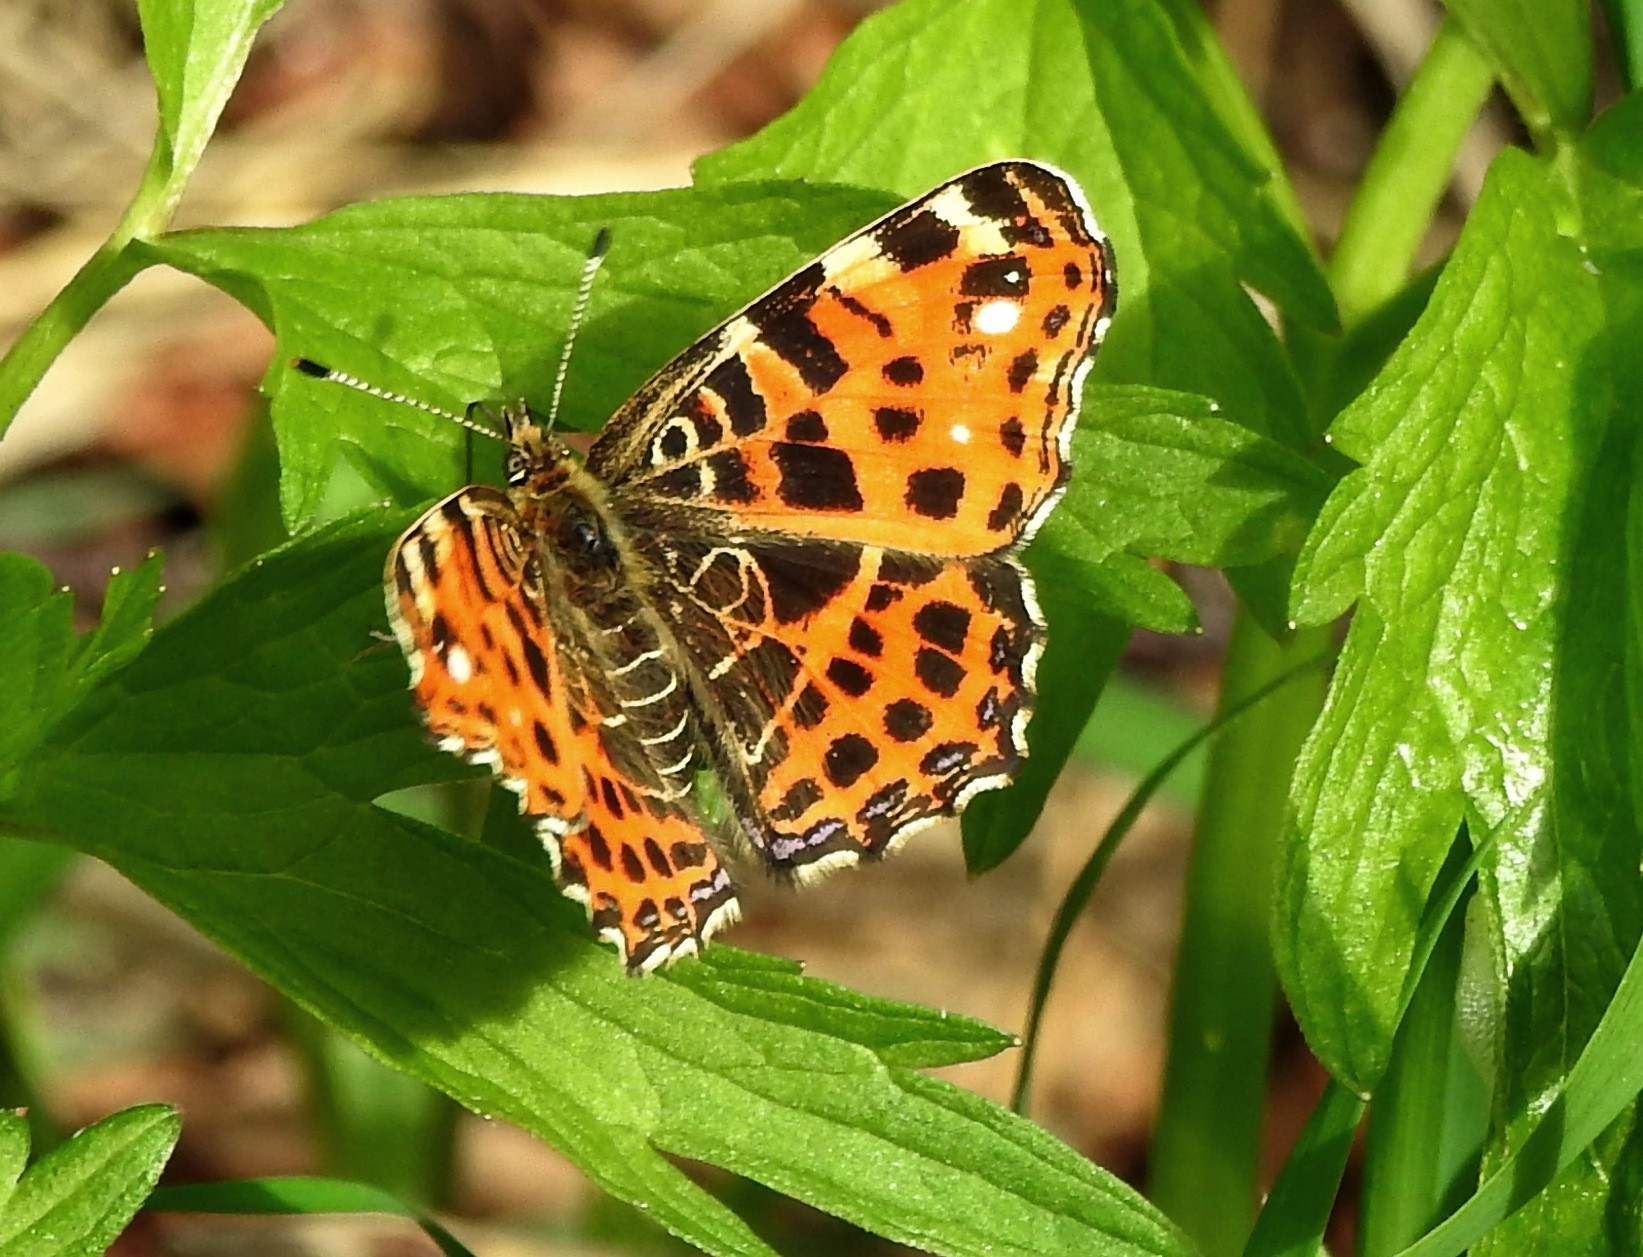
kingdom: Animalia
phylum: Arthropoda
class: Insecta
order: Lepidoptera
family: Nymphalidae
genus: Araschnia
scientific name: Araschnia levana
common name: Map butterfly
